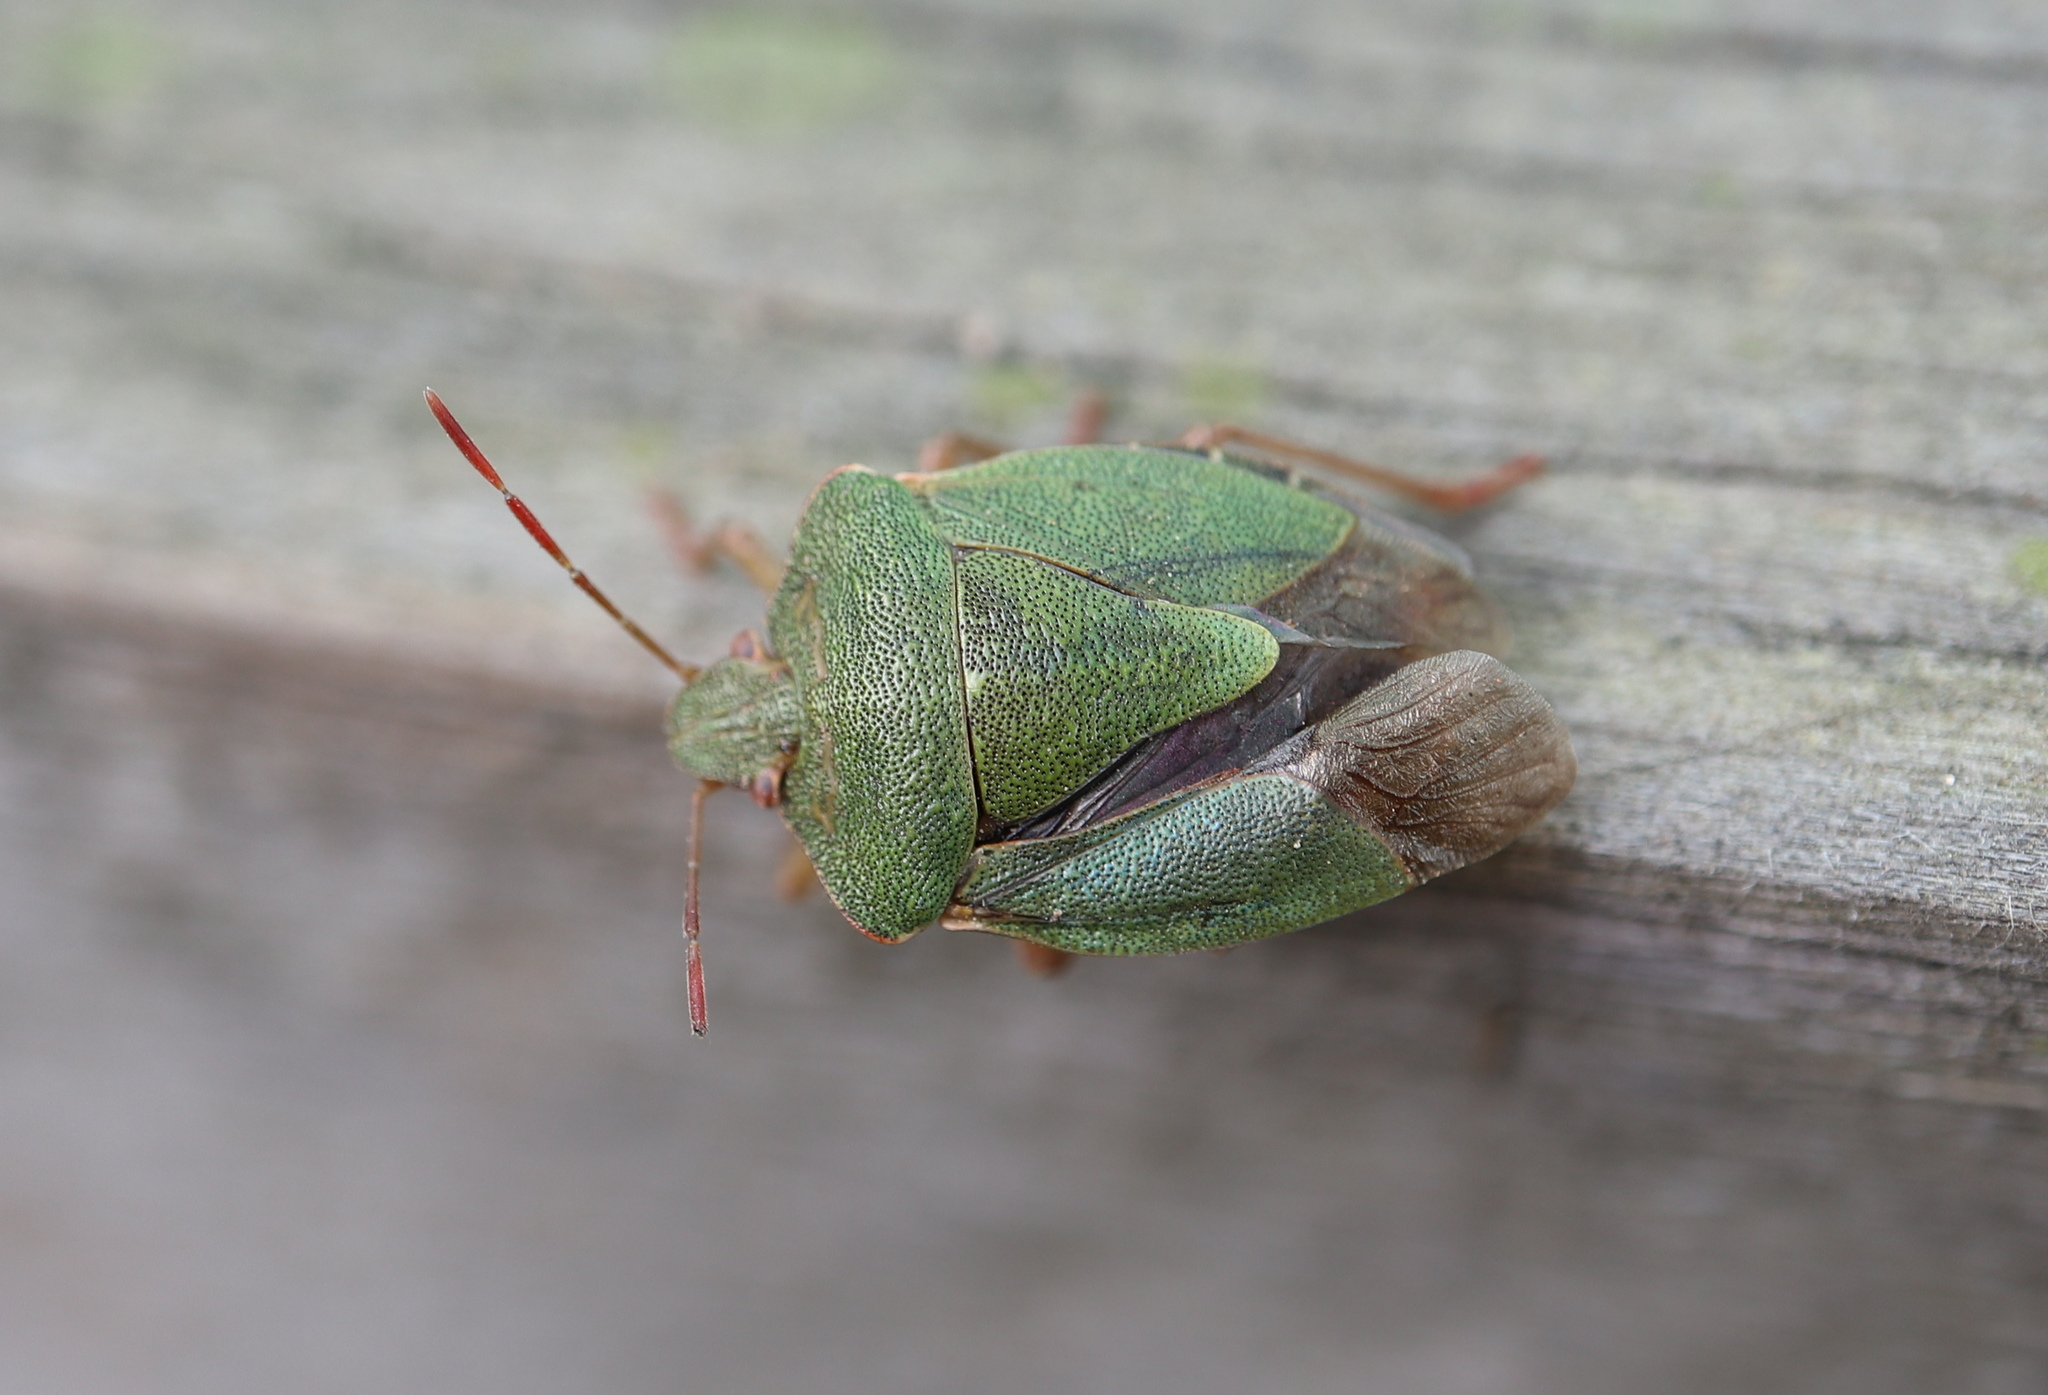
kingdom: Animalia
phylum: Arthropoda
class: Insecta
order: Hemiptera
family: Pentatomidae
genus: Palomena
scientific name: Palomena prasina
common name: Green shieldbug
